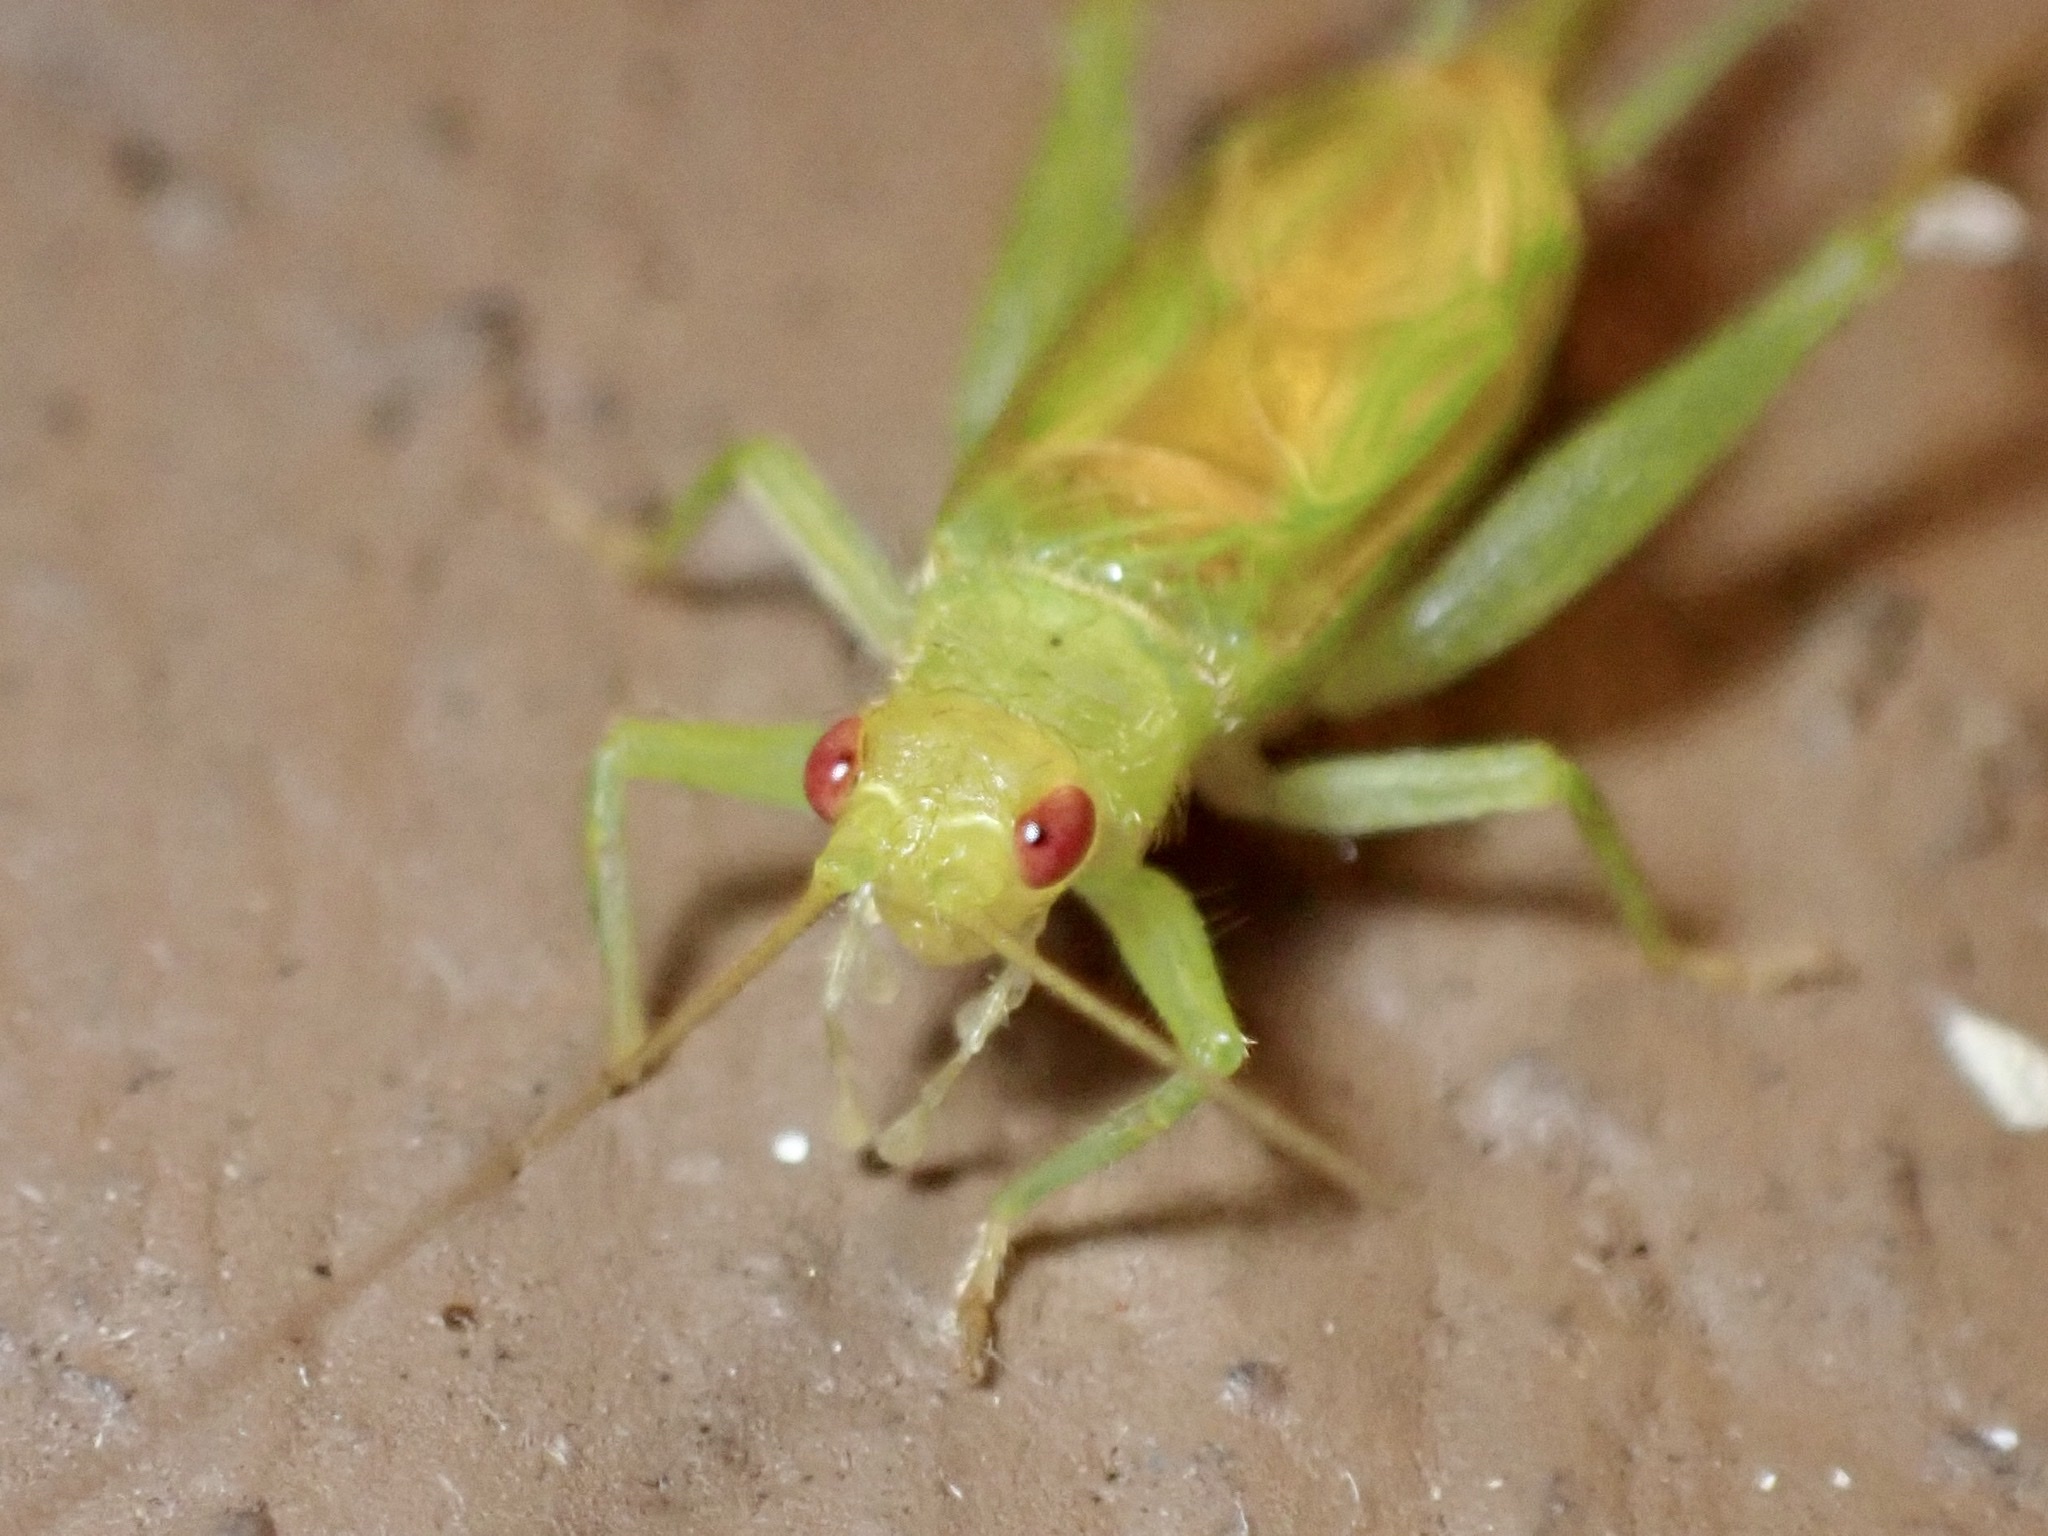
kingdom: Animalia
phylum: Arthropoda
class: Insecta
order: Orthoptera
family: Trigonidiidae
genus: Cyrtoxipha
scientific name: Cyrtoxipha columbiana
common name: Columbian trig
